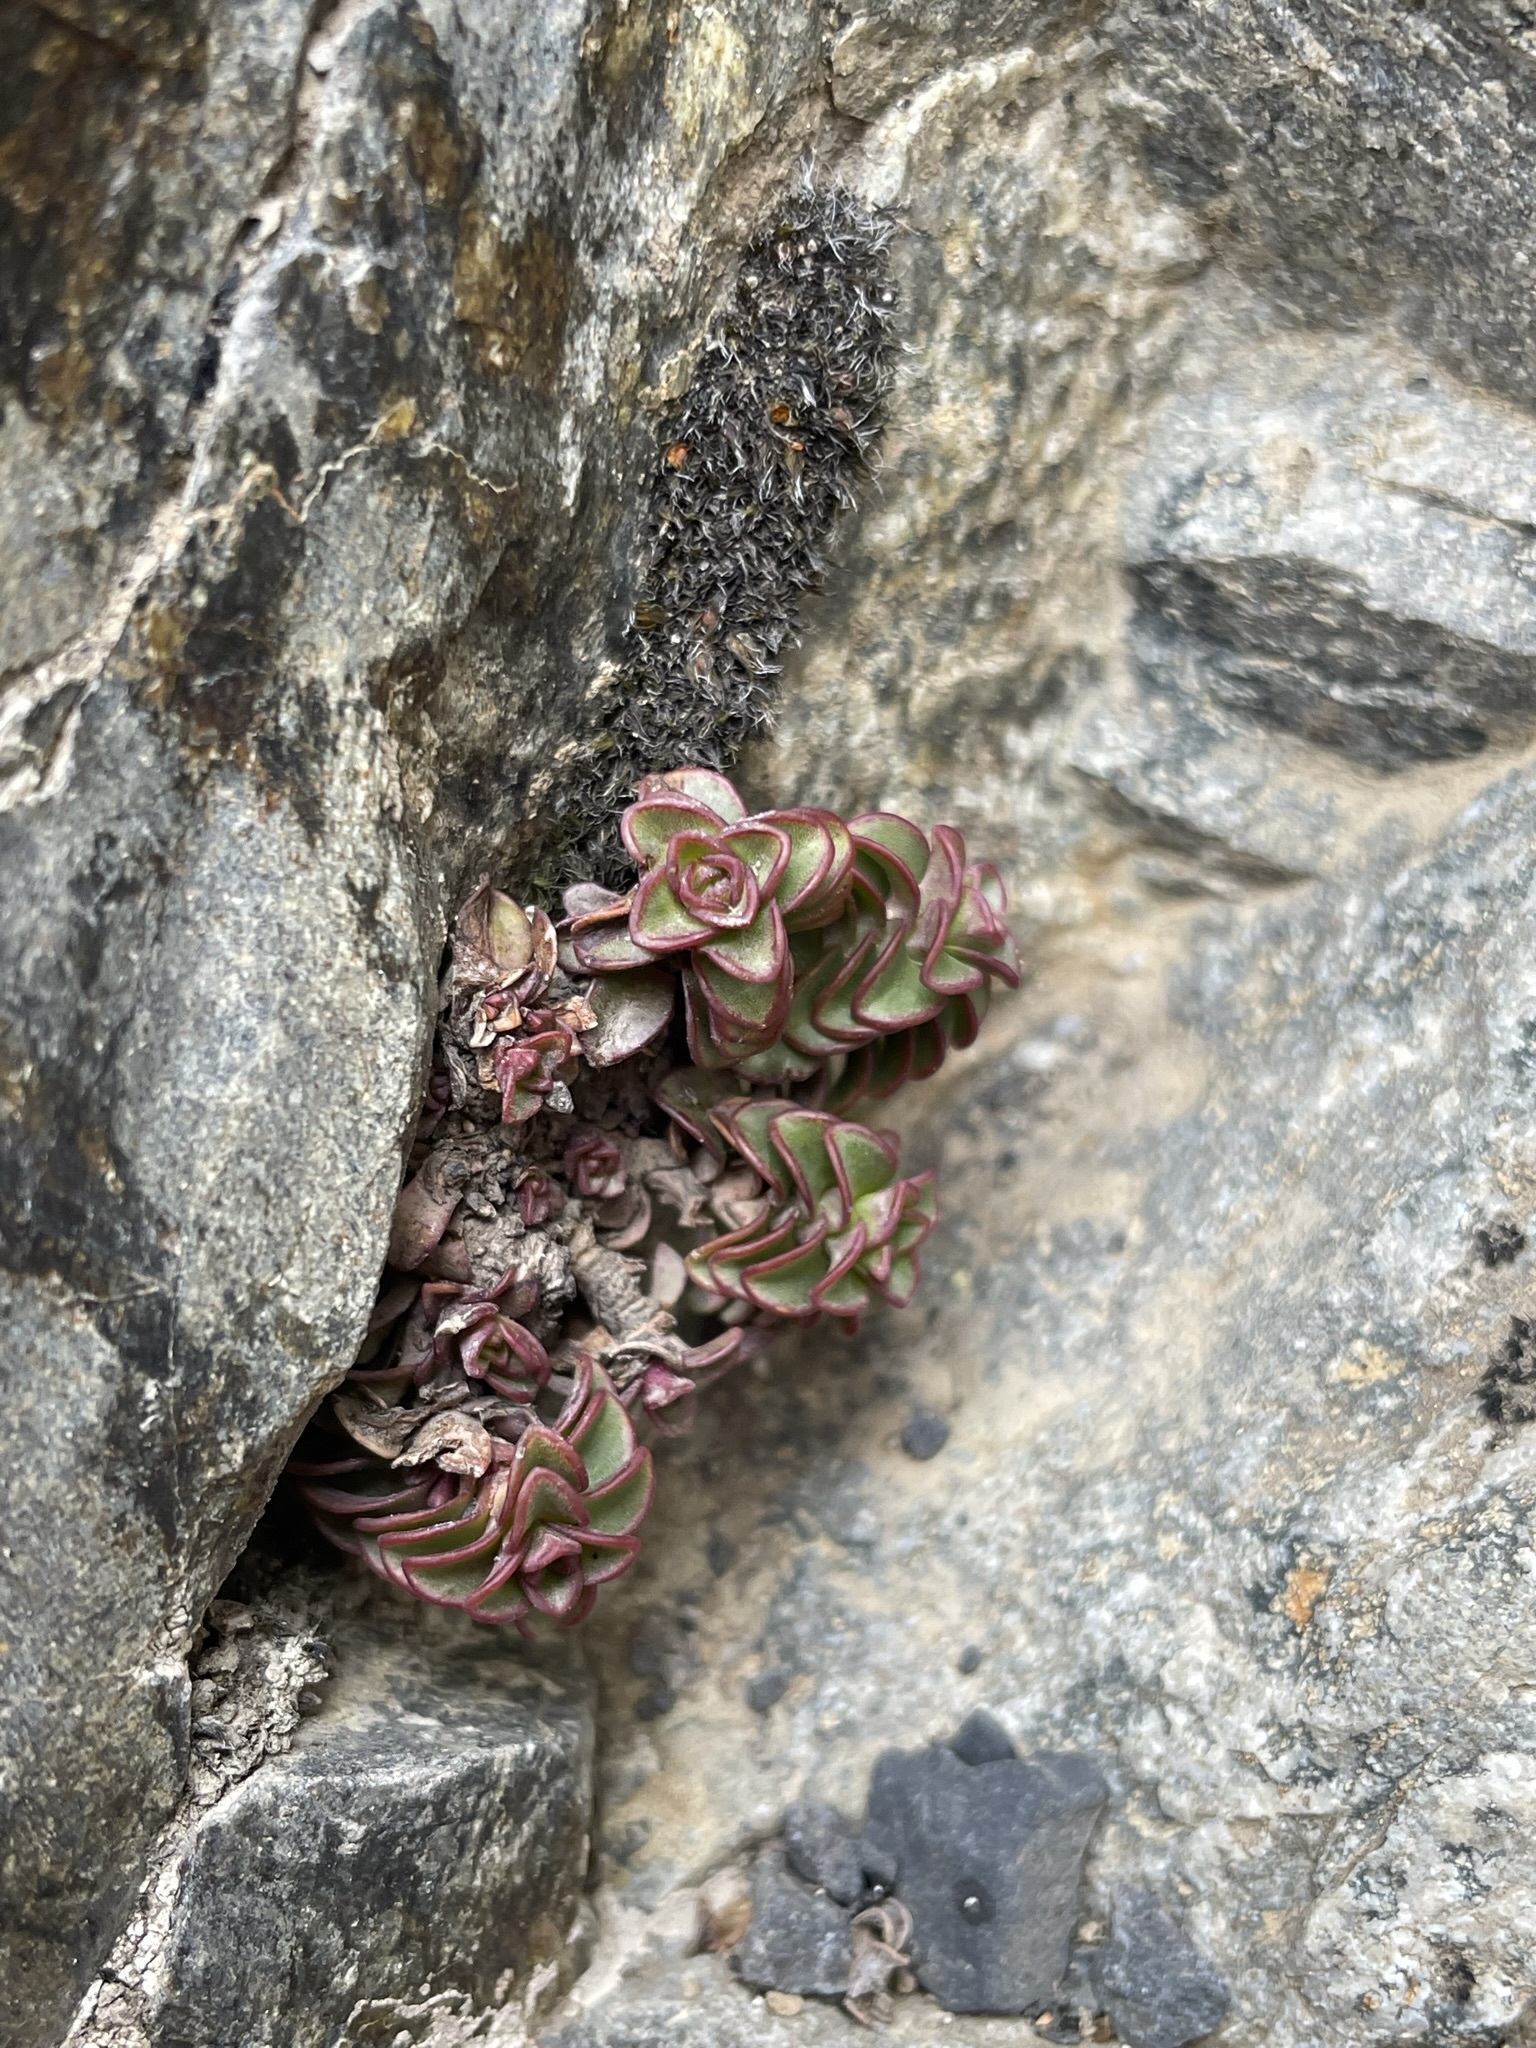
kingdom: Plantae
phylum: Tracheophyta
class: Magnoliopsida
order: Lamiales
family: Plantaginaceae
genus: Veronica
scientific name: Veronica epacridea
